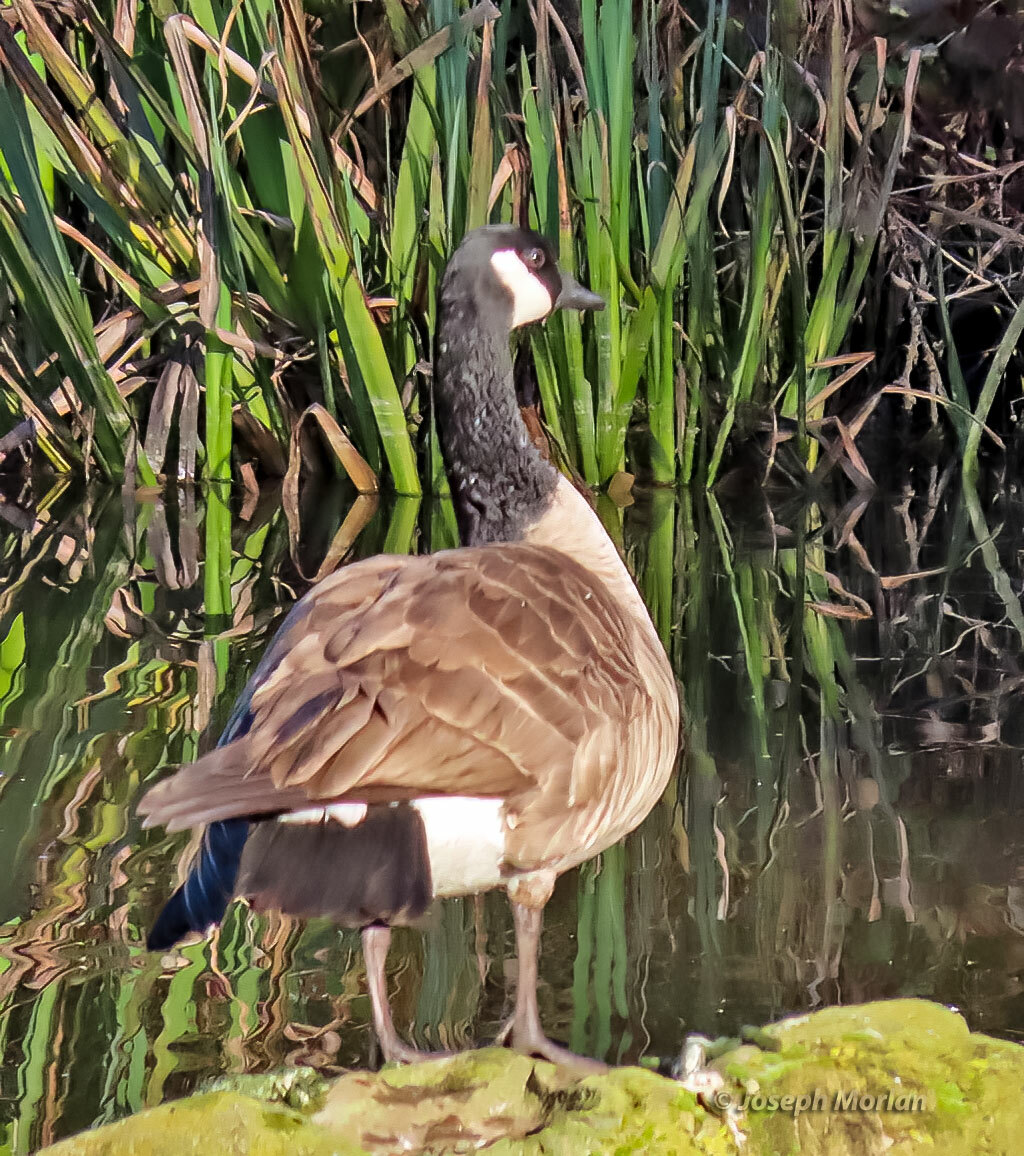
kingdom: Animalia
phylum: Chordata
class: Aves
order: Anseriformes
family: Anatidae
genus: Branta
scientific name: Branta canadensis
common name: Canada goose
